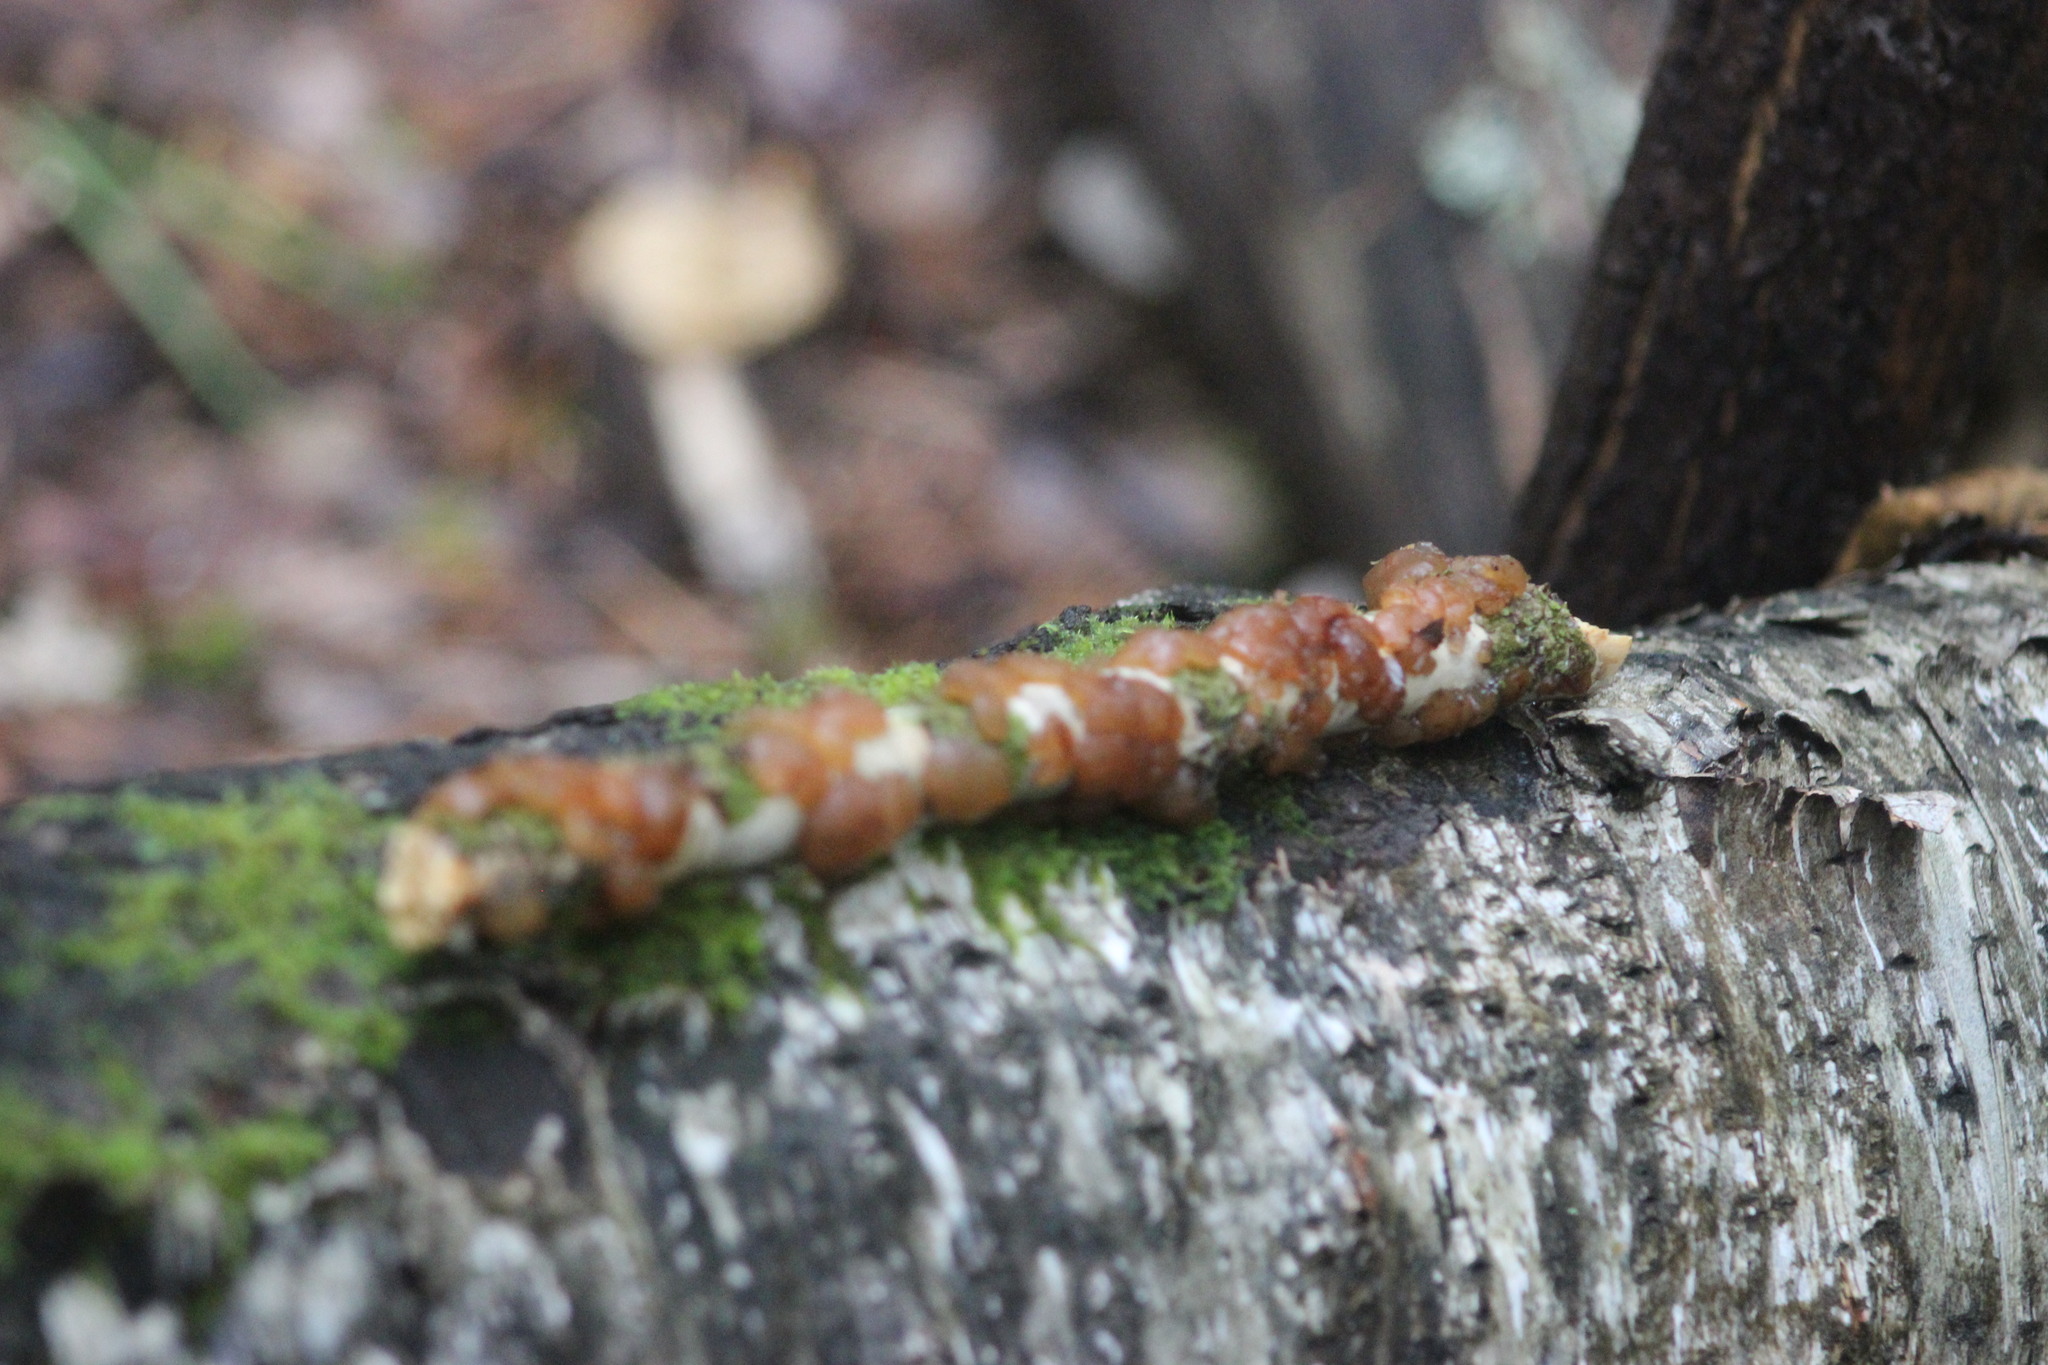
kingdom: Fungi
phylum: Basidiomycota
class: Agaricomycetes
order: Auriculariales
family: Auriculariaceae
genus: Exidia
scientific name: Exidia repanda
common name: Birch jelly
